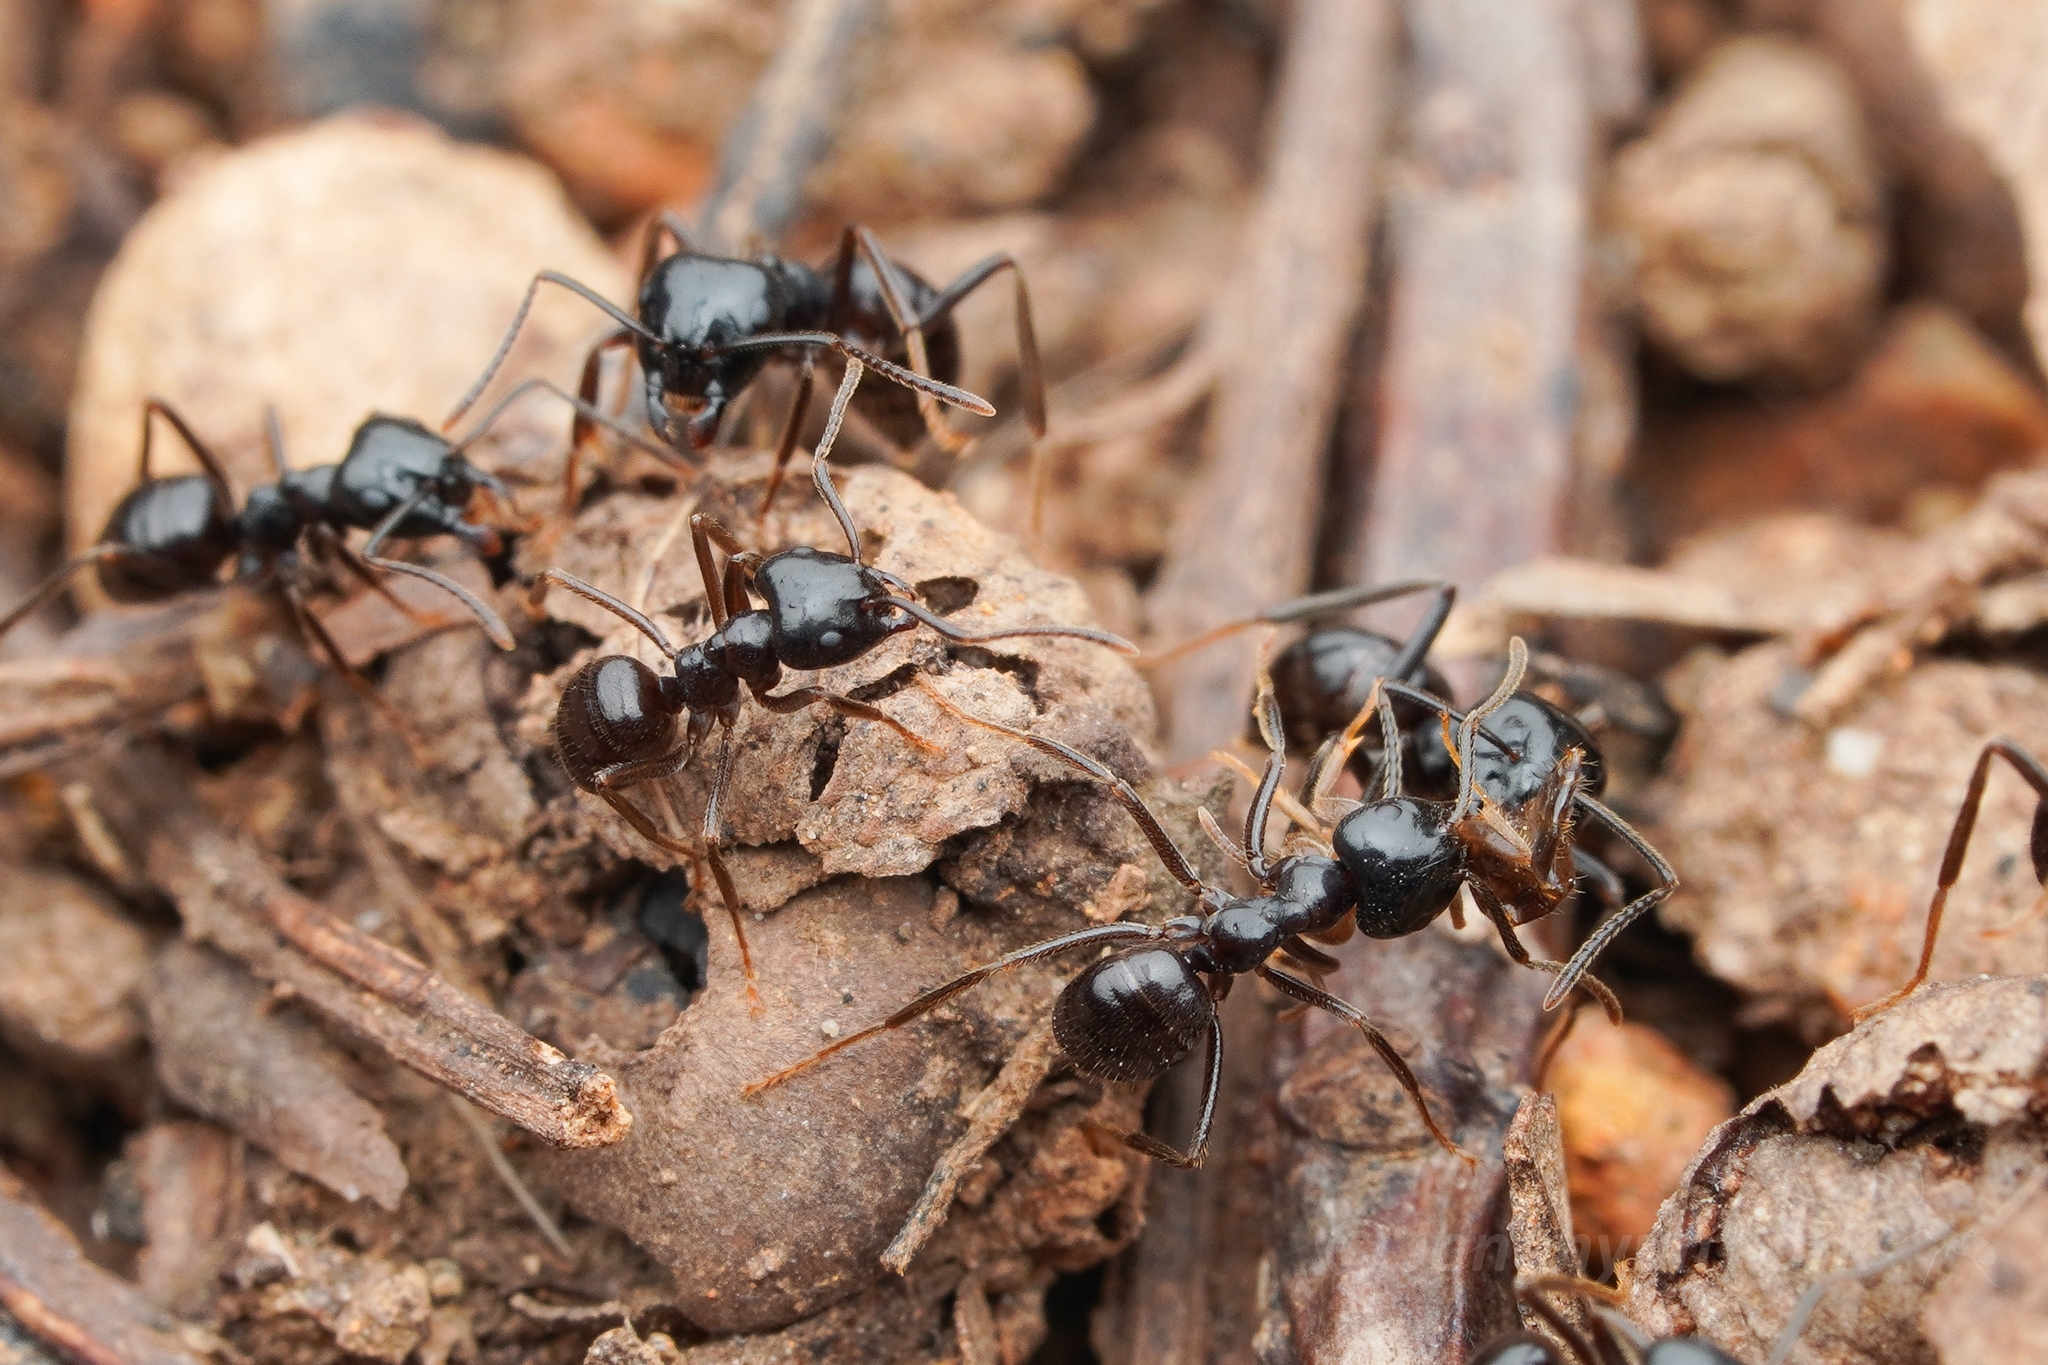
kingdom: Animalia
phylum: Arthropoda
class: Insecta
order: Hymenoptera
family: Formicidae
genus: Lasius
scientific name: Lasius spathepus
